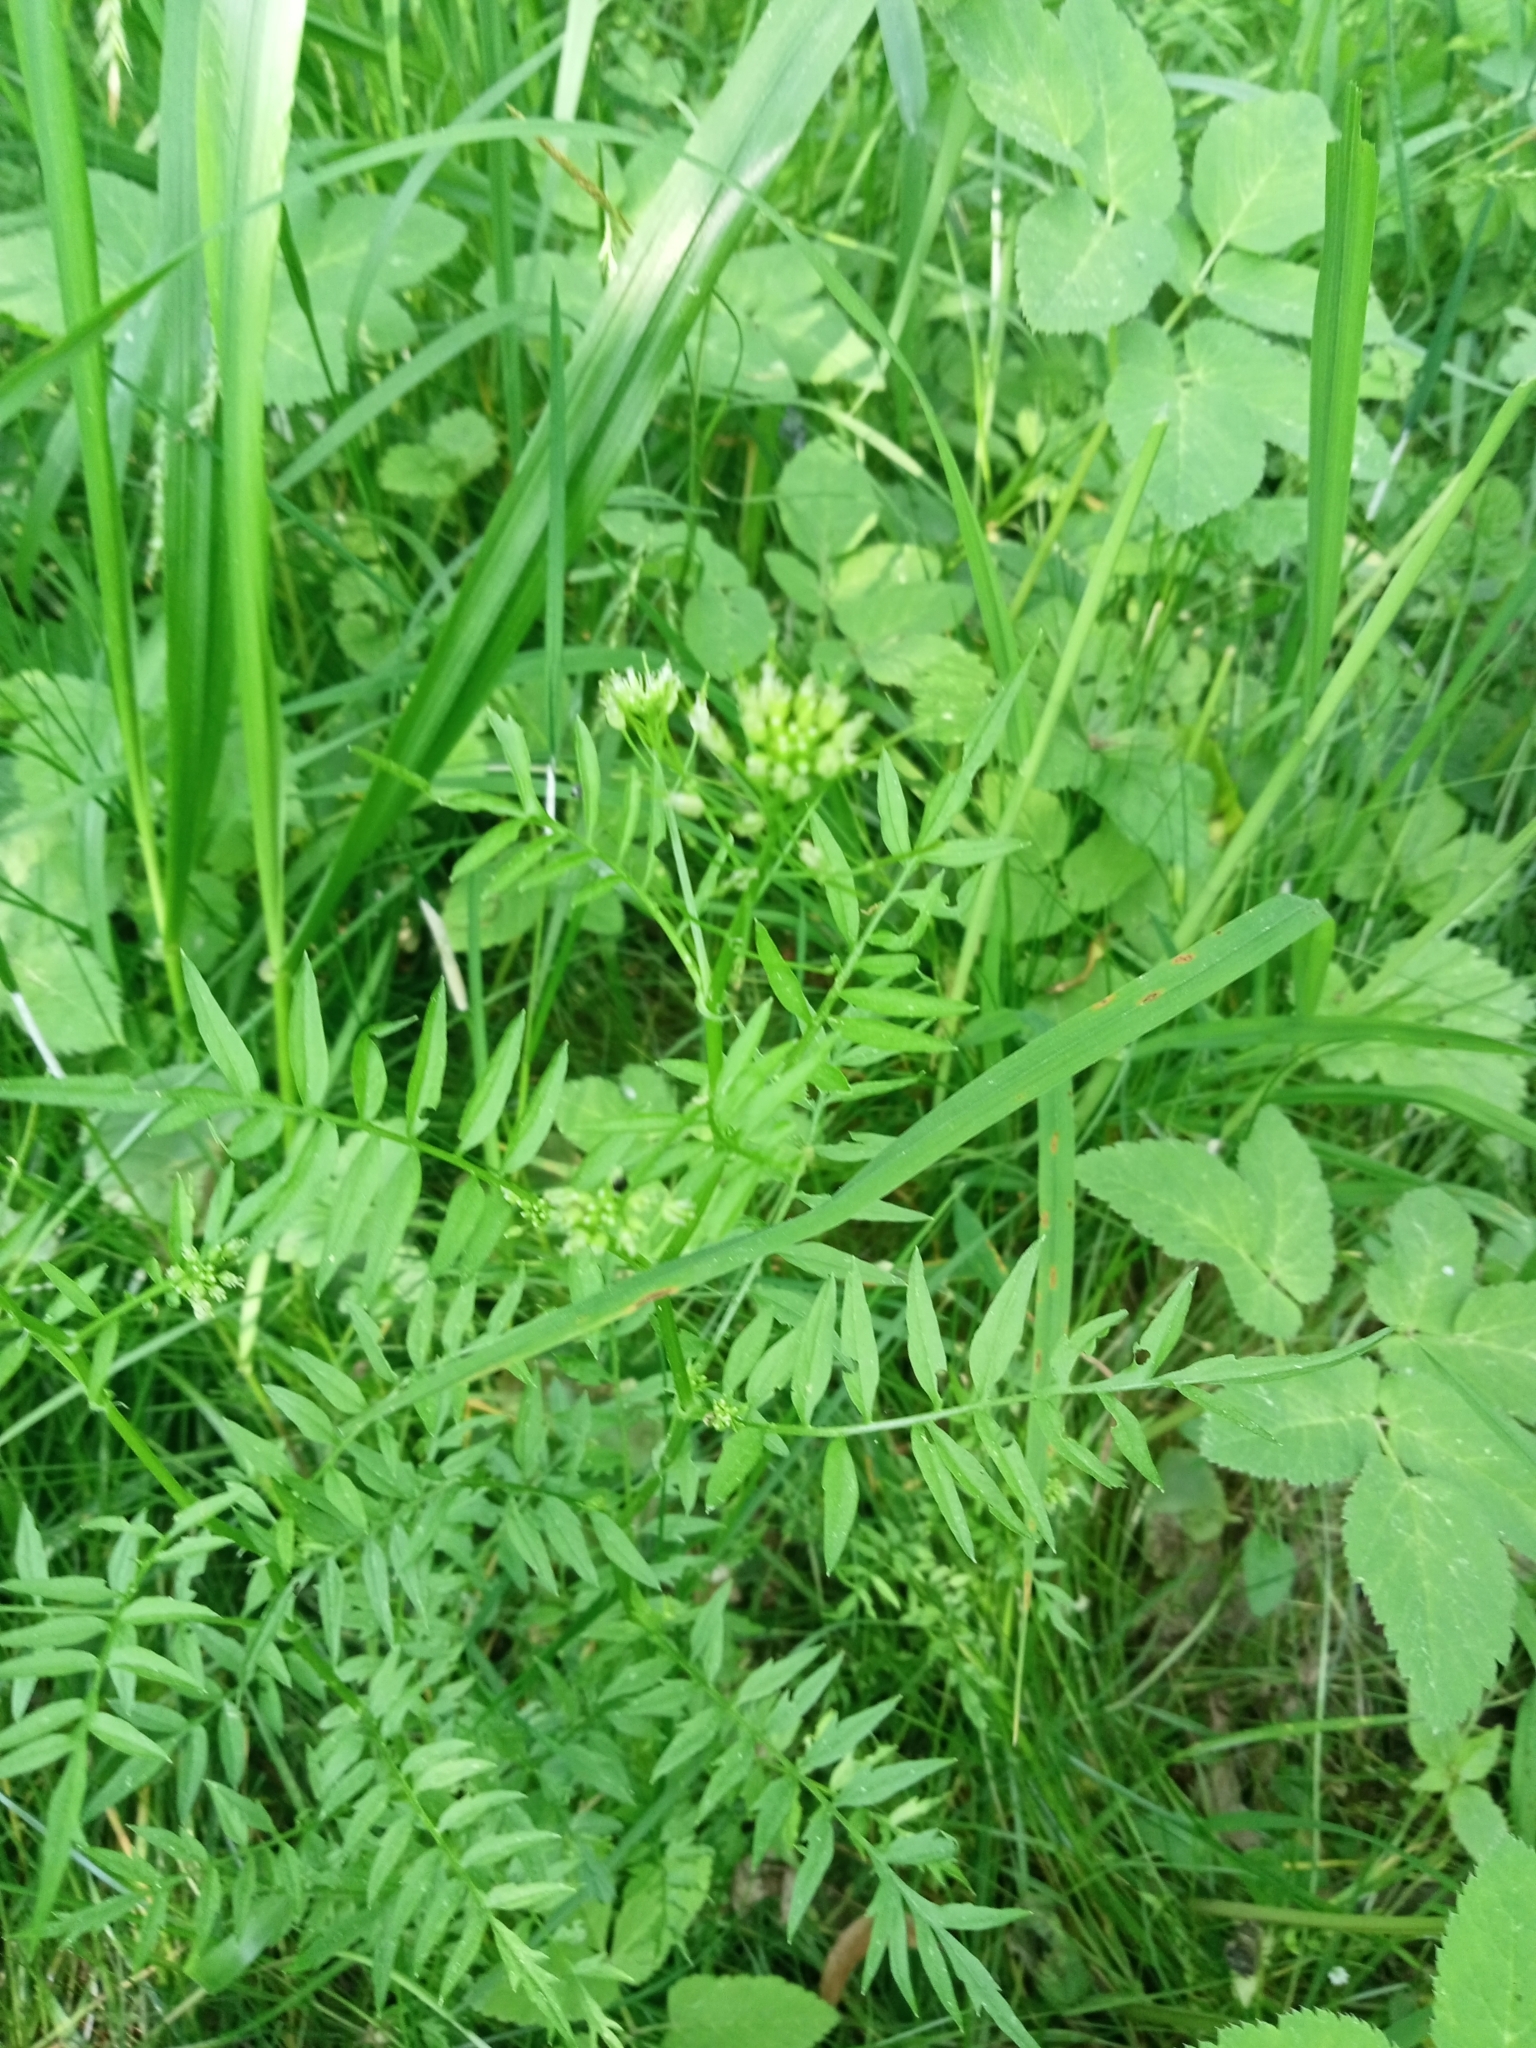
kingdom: Plantae
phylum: Tracheophyta
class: Magnoliopsida
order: Brassicales
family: Brassicaceae
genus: Cardamine
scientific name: Cardamine impatiens
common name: Narrow-leaved bitter-cress
